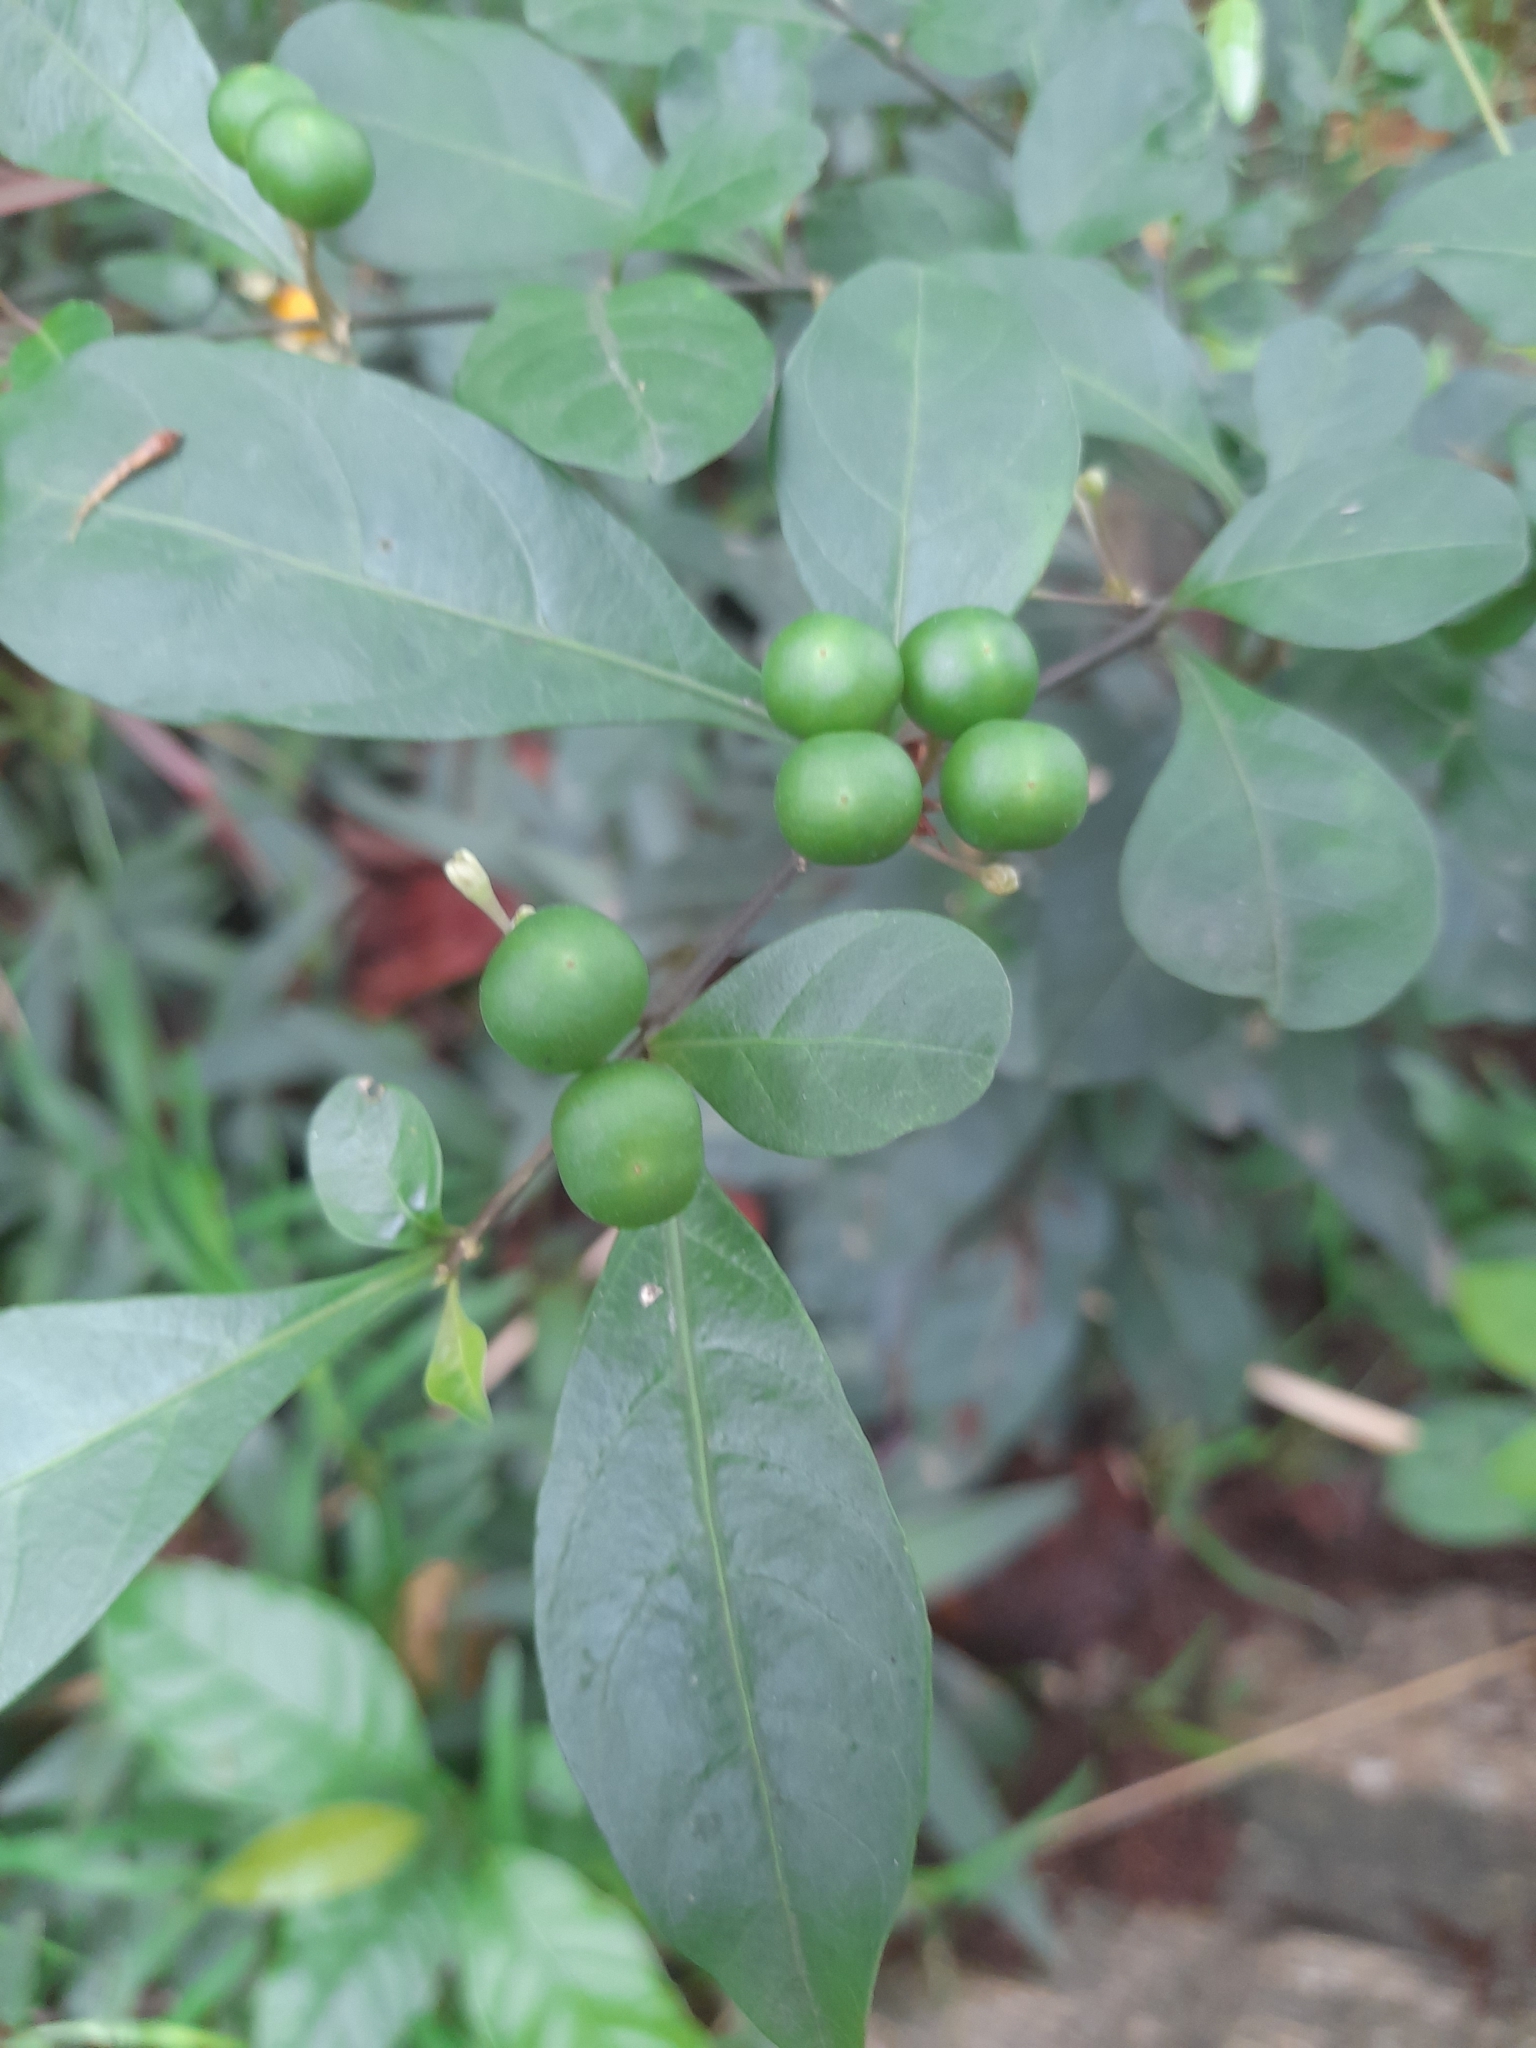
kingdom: Plantae
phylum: Tracheophyta
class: Magnoliopsida
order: Solanales
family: Solanaceae
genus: Solanum
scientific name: Solanum diphyllum
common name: Twoleaf nightshade
